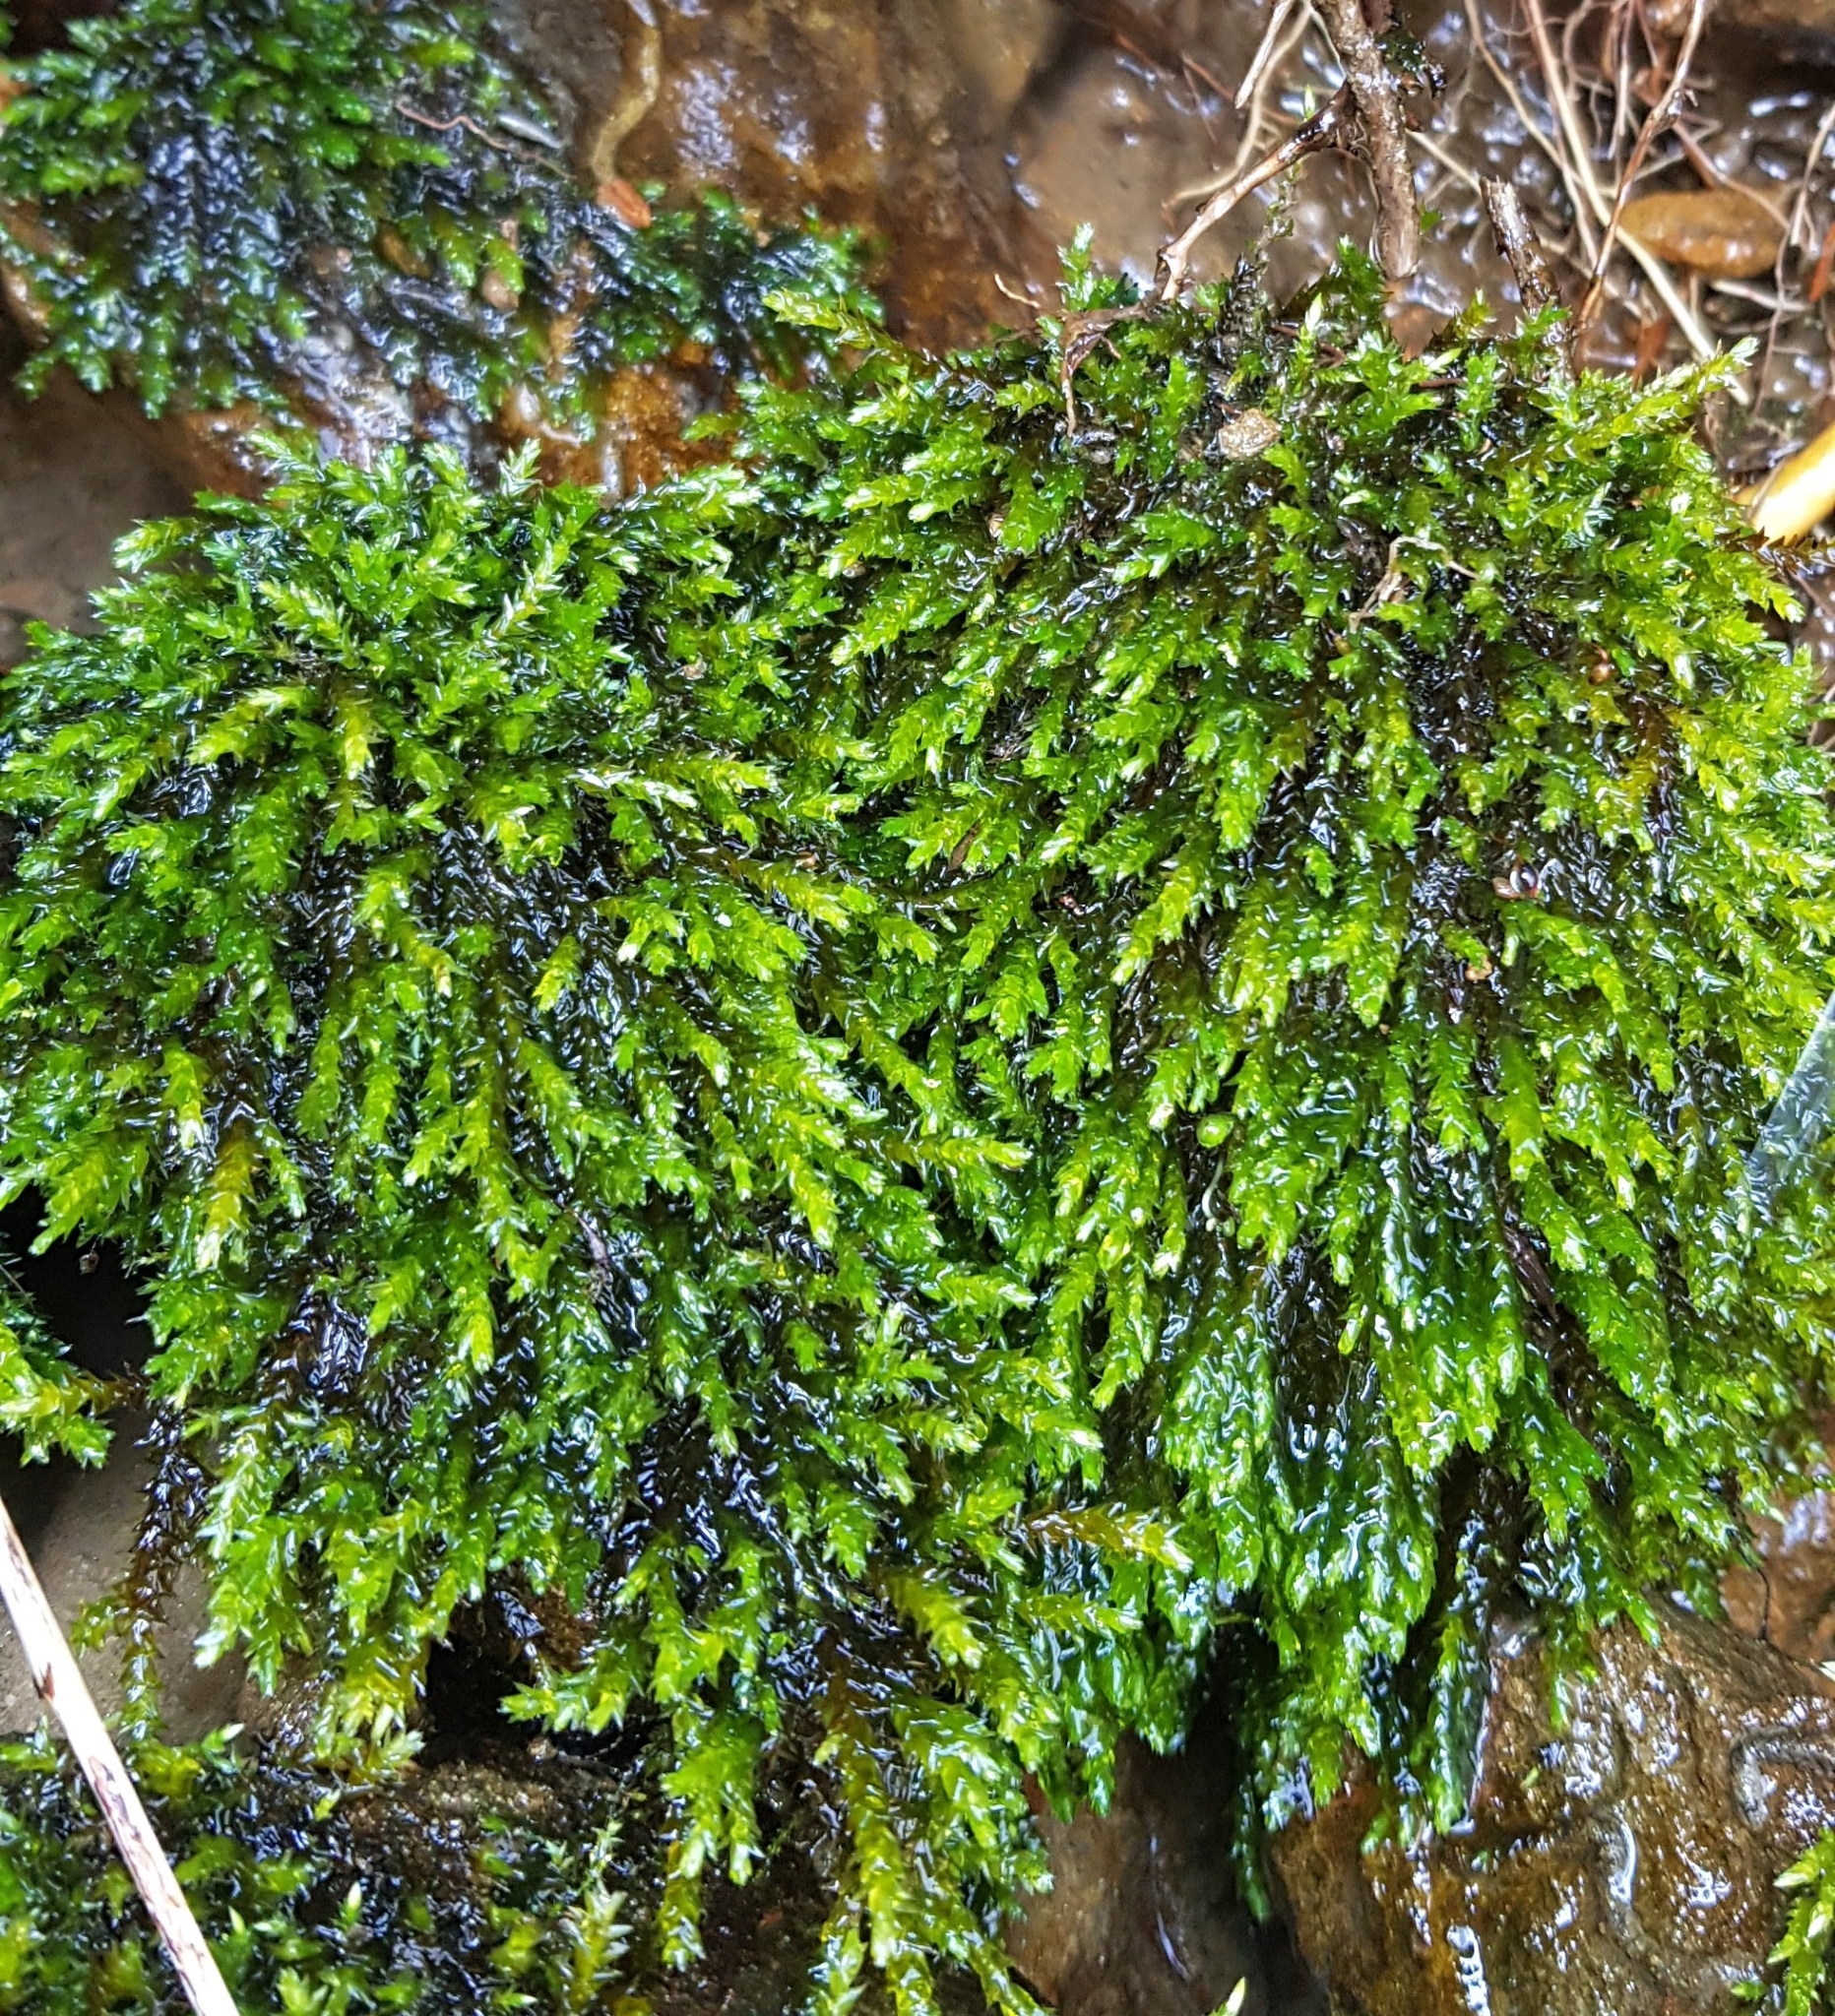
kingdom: Plantae
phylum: Bryophyta
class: Bryopsida
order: Hypnales
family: Brachytheciaceae
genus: Rhynchostegium
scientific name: Rhynchostegium riparioides
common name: Platyhypnidium moss
